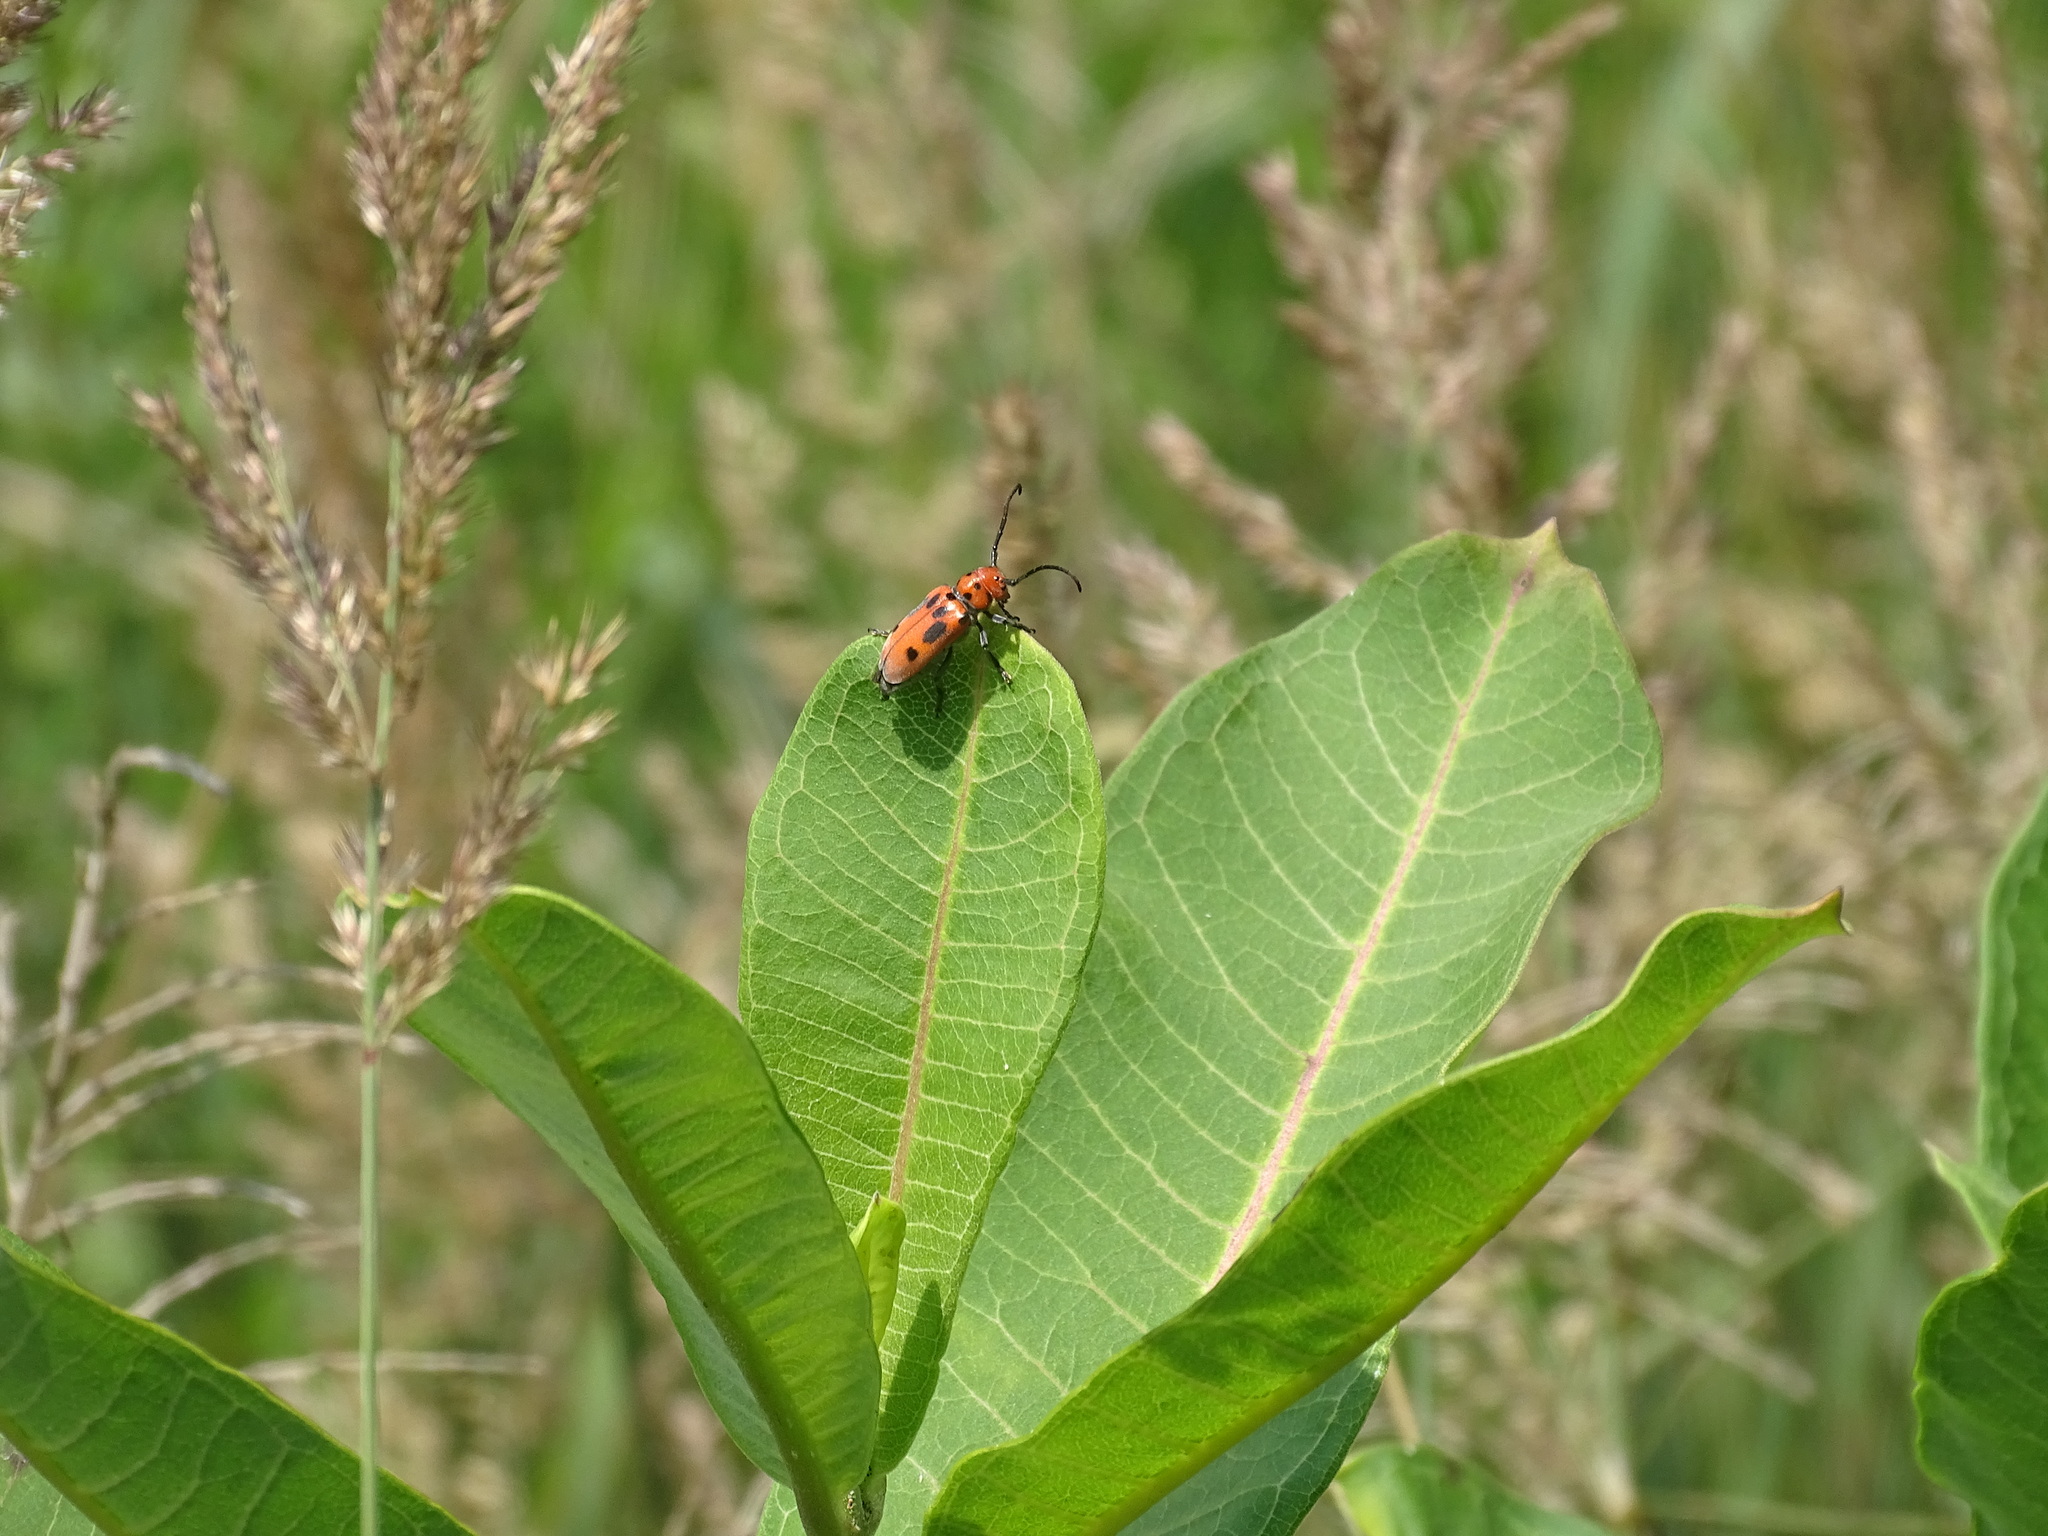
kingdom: Animalia
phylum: Arthropoda
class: Insecta
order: Coleoptera
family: Cerambycidae
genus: Tetraopes
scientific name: Tetraopes tetrophthalmus
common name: Red milkweed beetle
